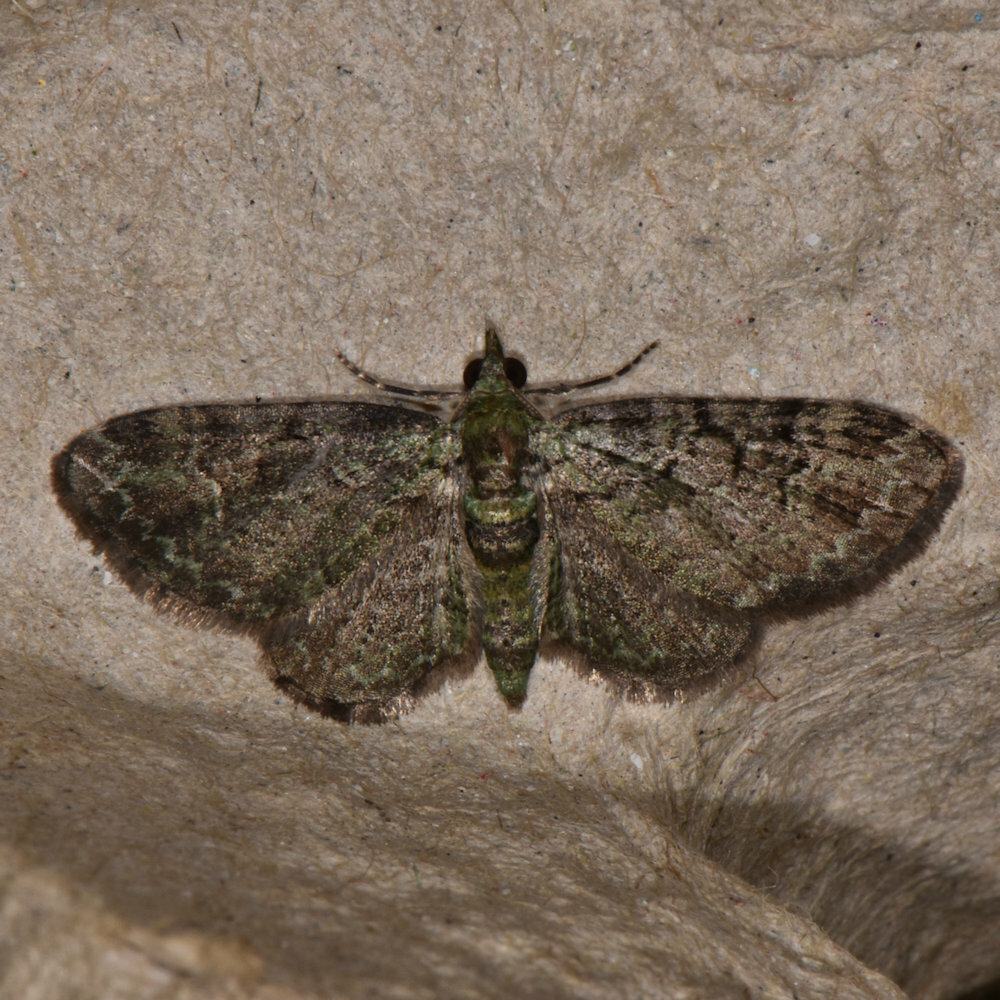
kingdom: Animalia
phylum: Arthropoda
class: Insecta
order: Lepidoptera
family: Geometridae
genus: Pasiphila
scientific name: Pasiphila rectangulata
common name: Green pug
